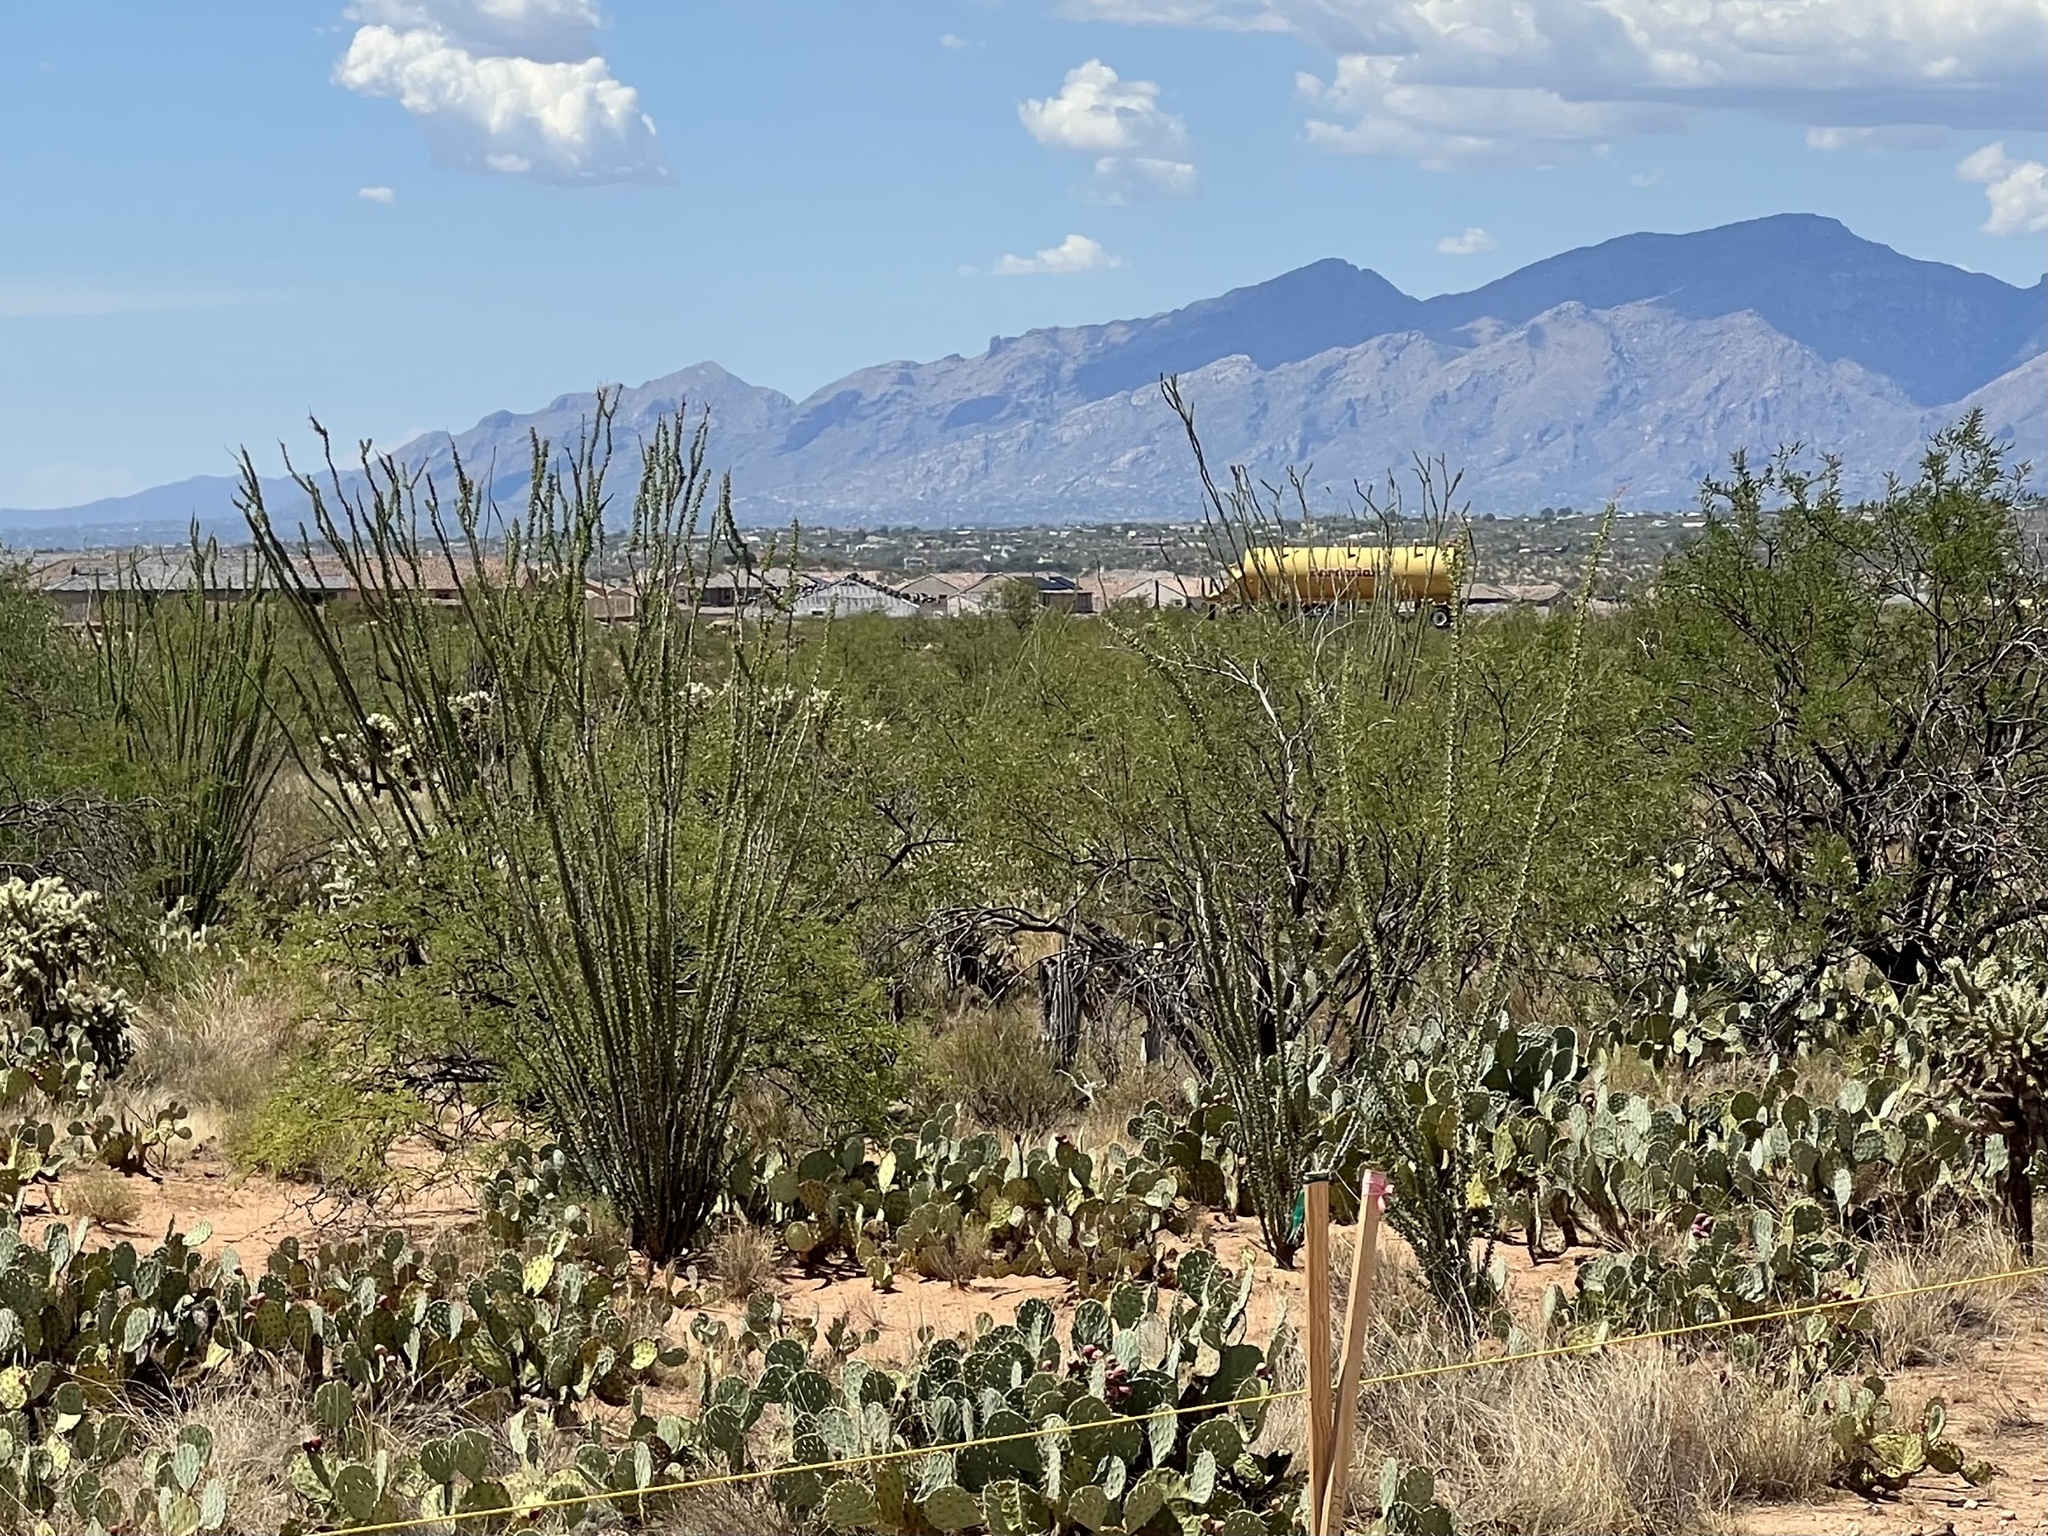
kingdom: Plantae
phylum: Tracheophyta
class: Magnoliopsida
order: Ericales
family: Fouquieriaceae
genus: Fouquieria
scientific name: Fouquieria splendens
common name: Vine-cactus
